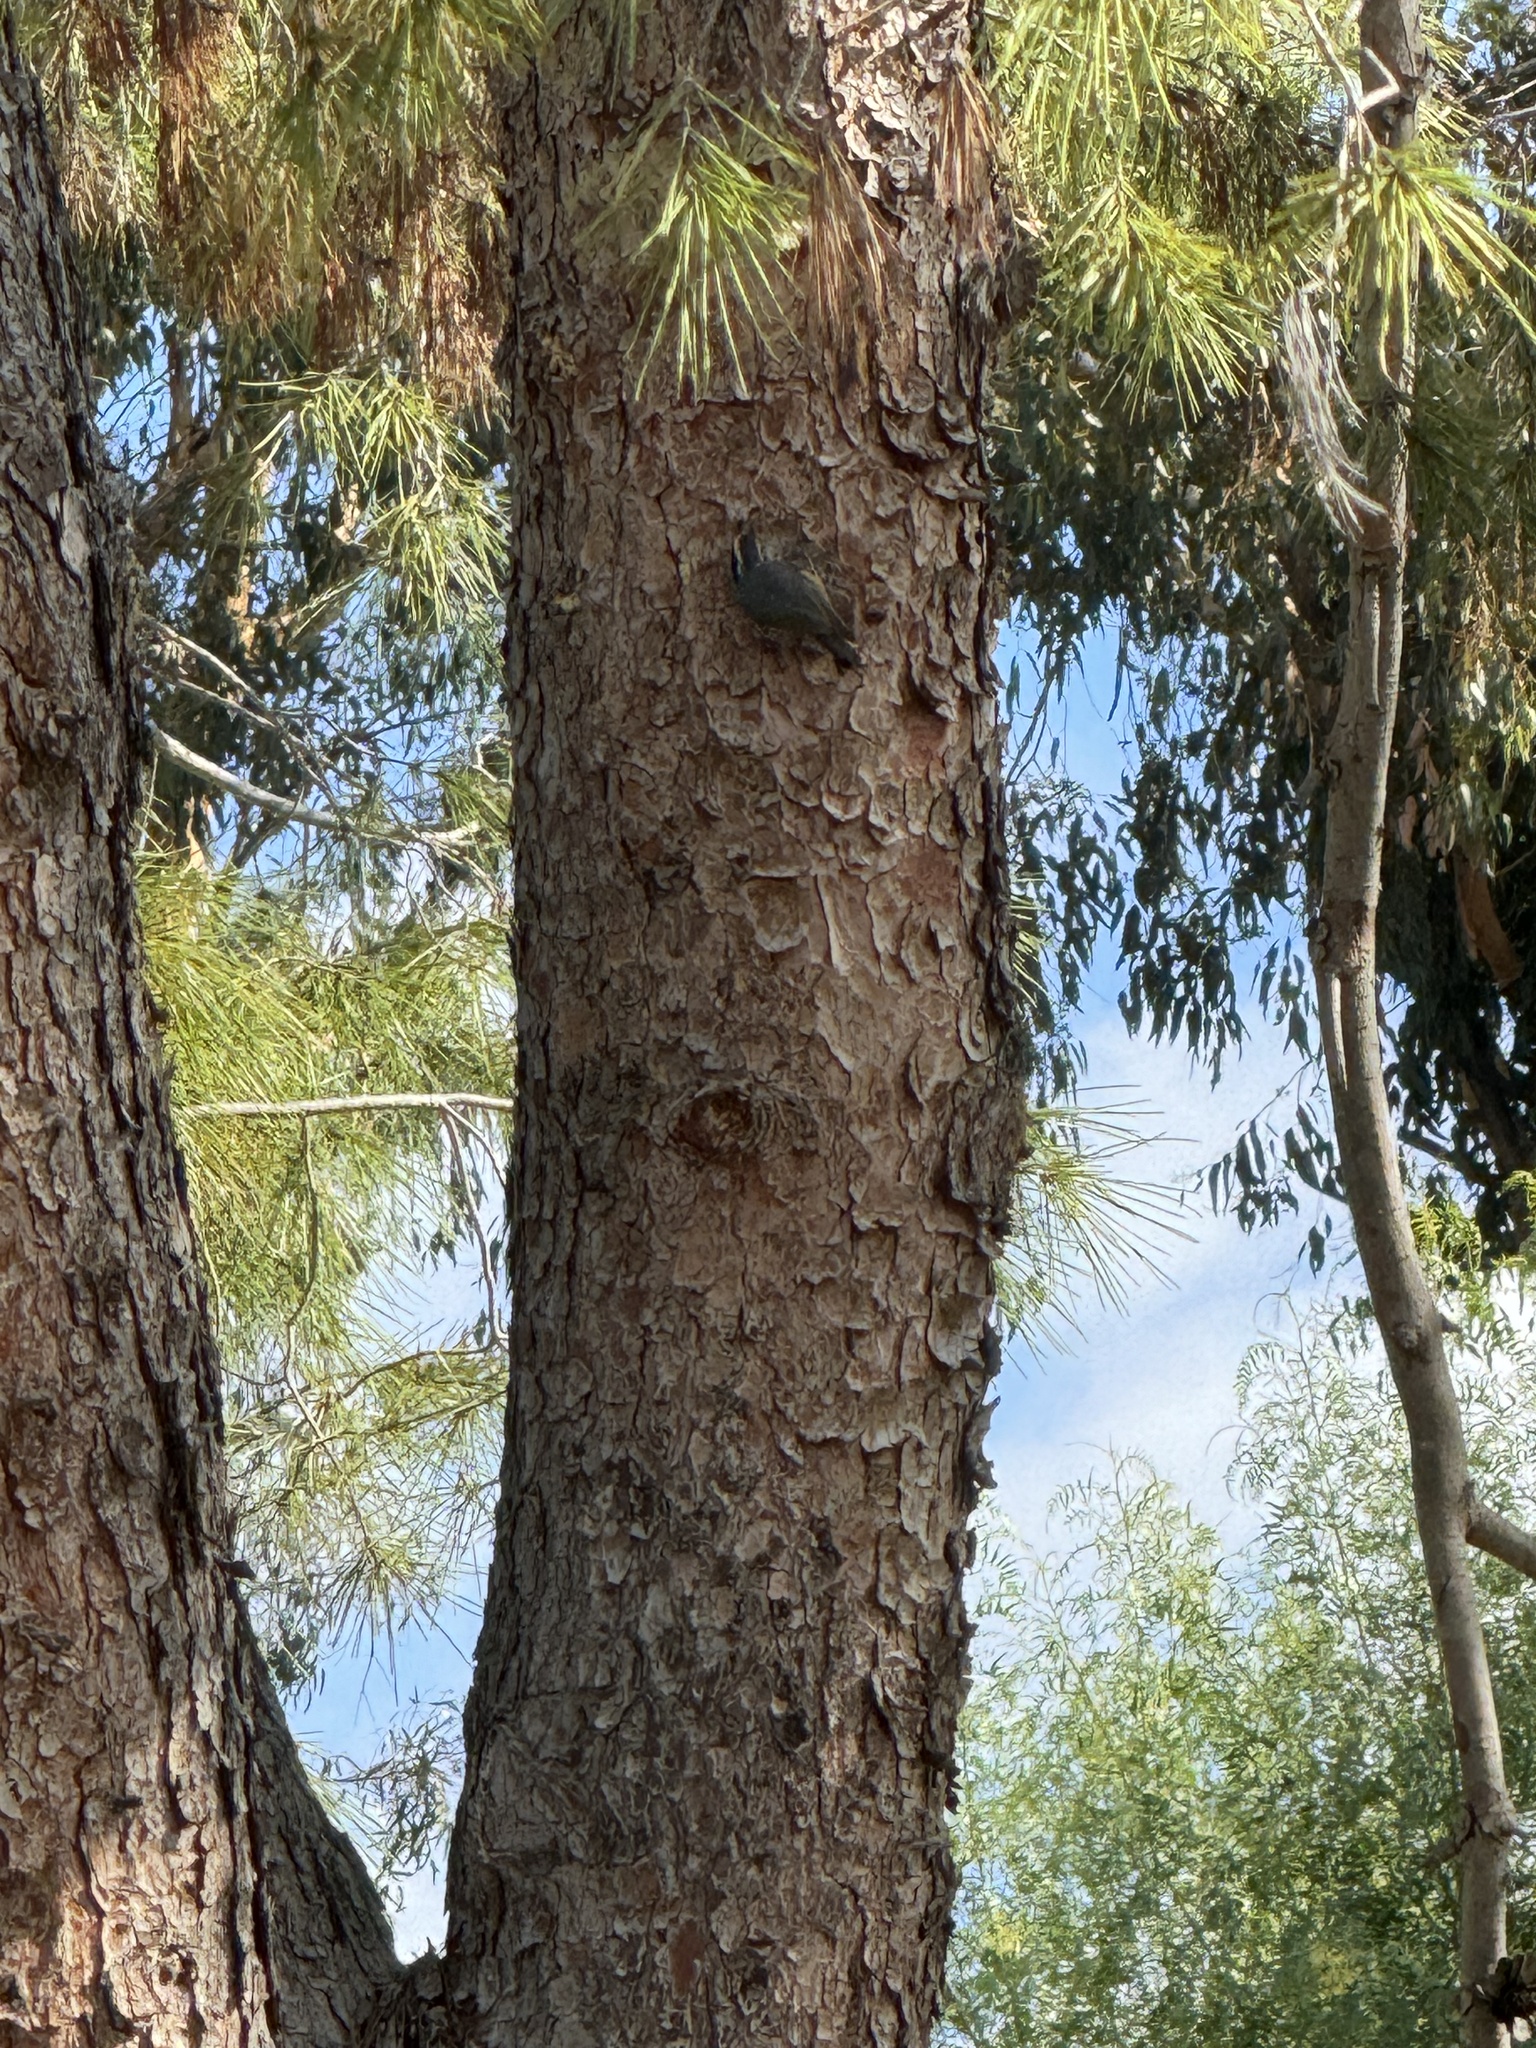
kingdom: Animalia
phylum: Chordata
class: Aves
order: Passeriformes
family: Sittidae
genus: Sitta
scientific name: Sitta canadensis
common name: Red-breasted nuthatch
